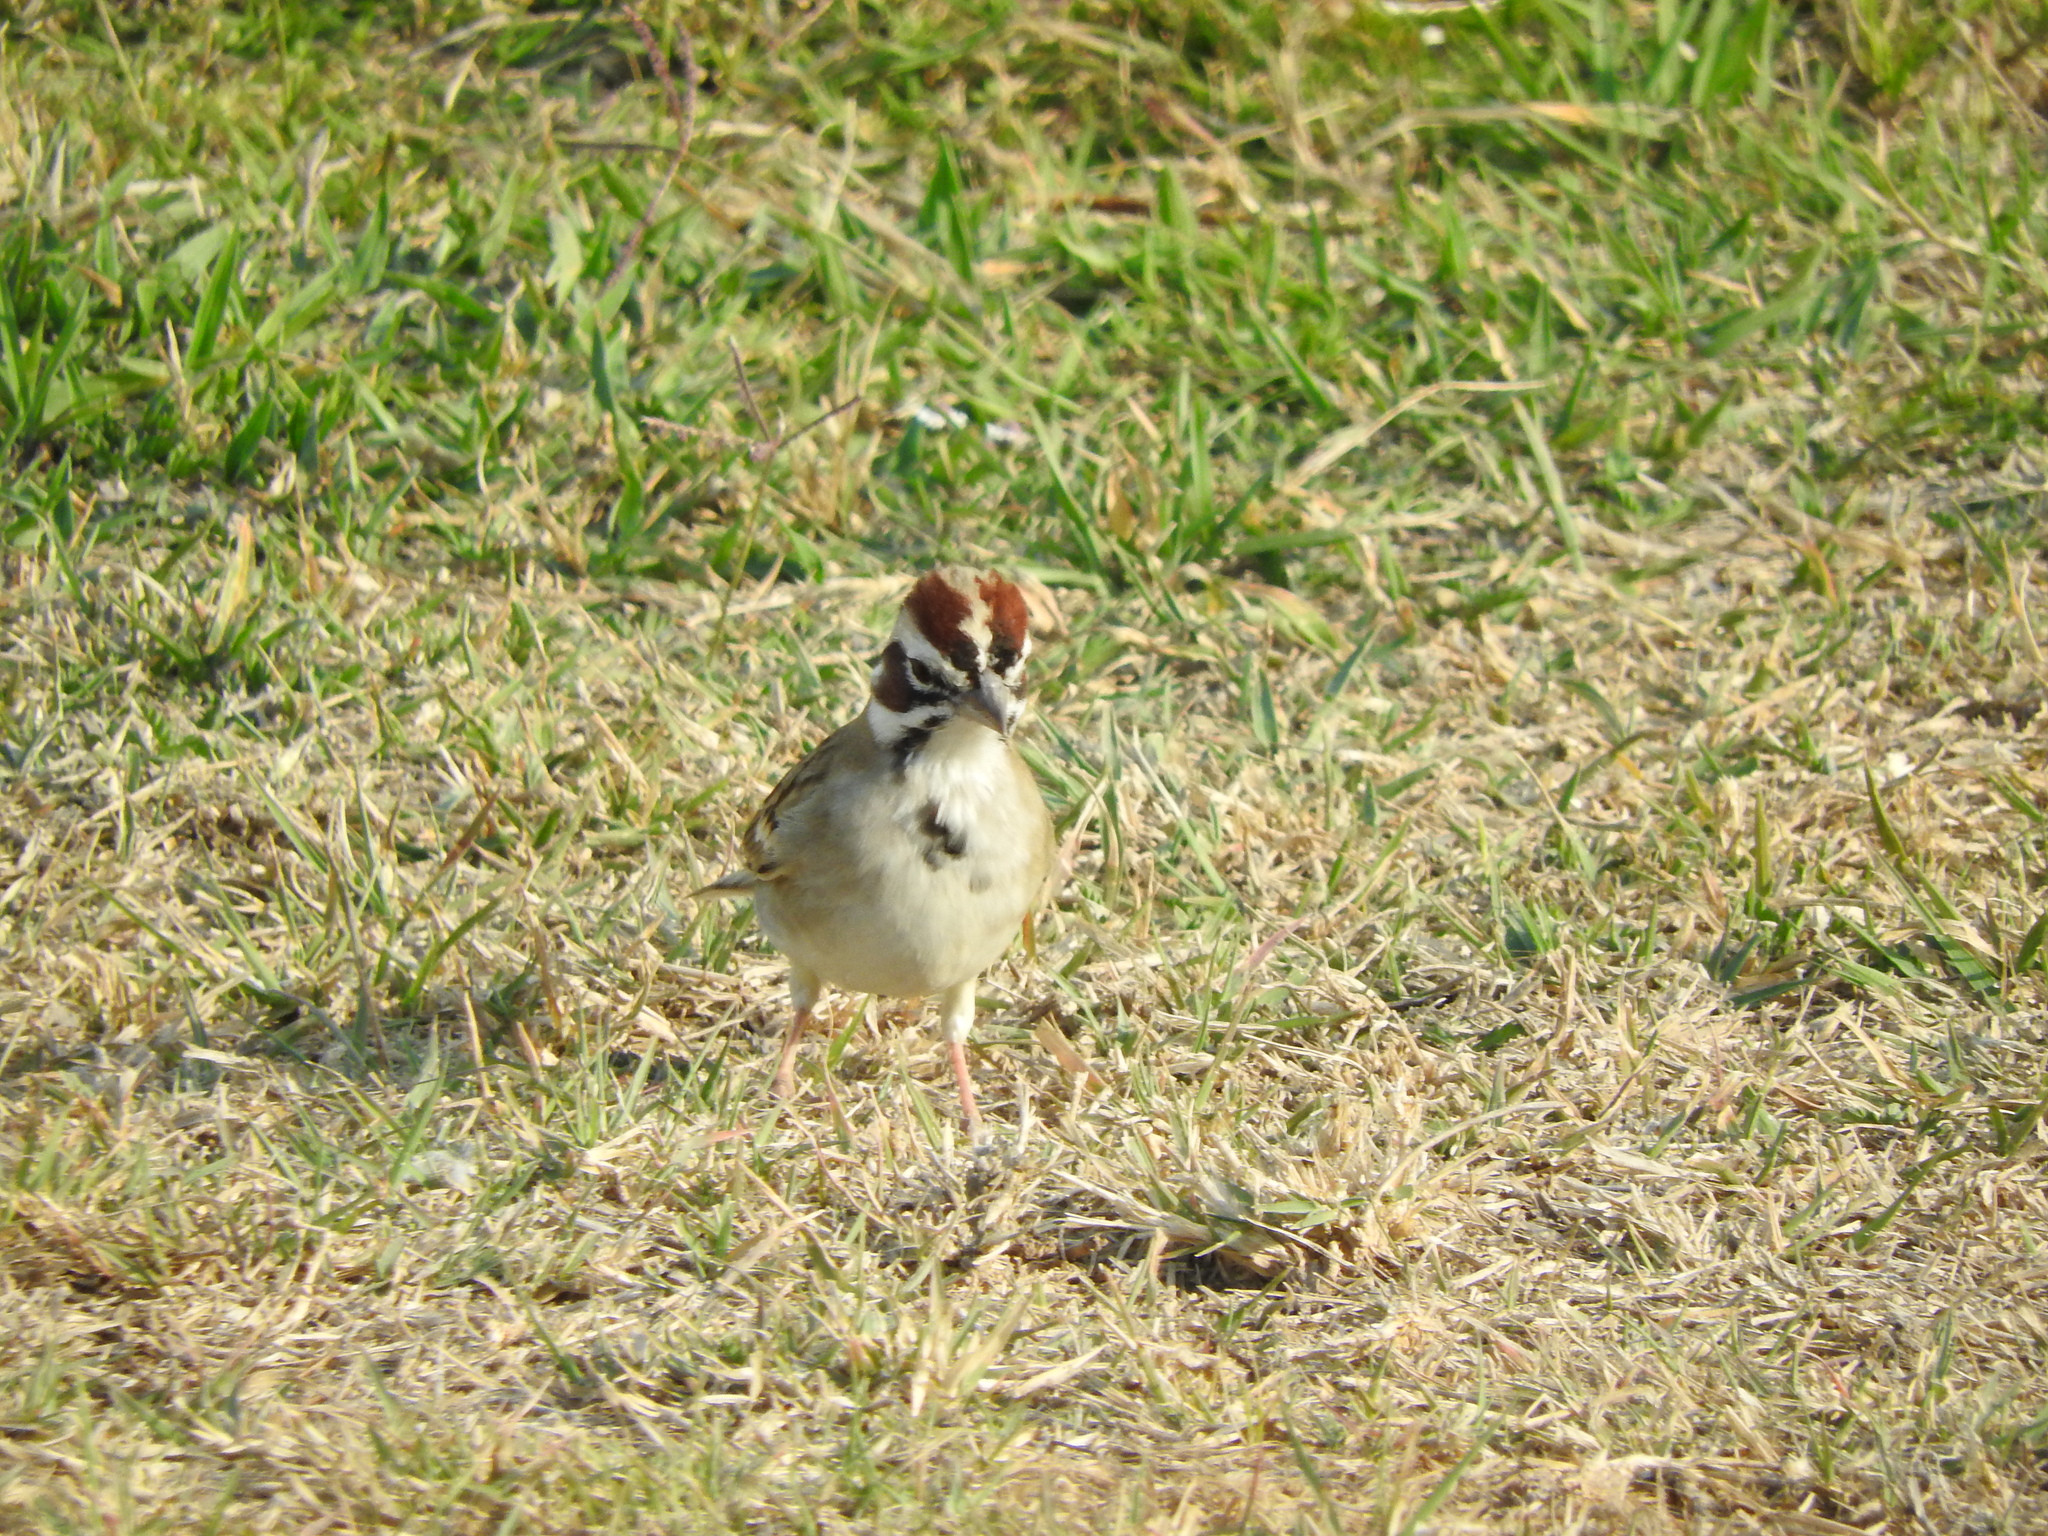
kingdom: Animalia
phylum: Chordata
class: Aves
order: Passeriformes
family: Passerellidae
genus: Chondestes
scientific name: Chondestes grammacus
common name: Lark sparrow
